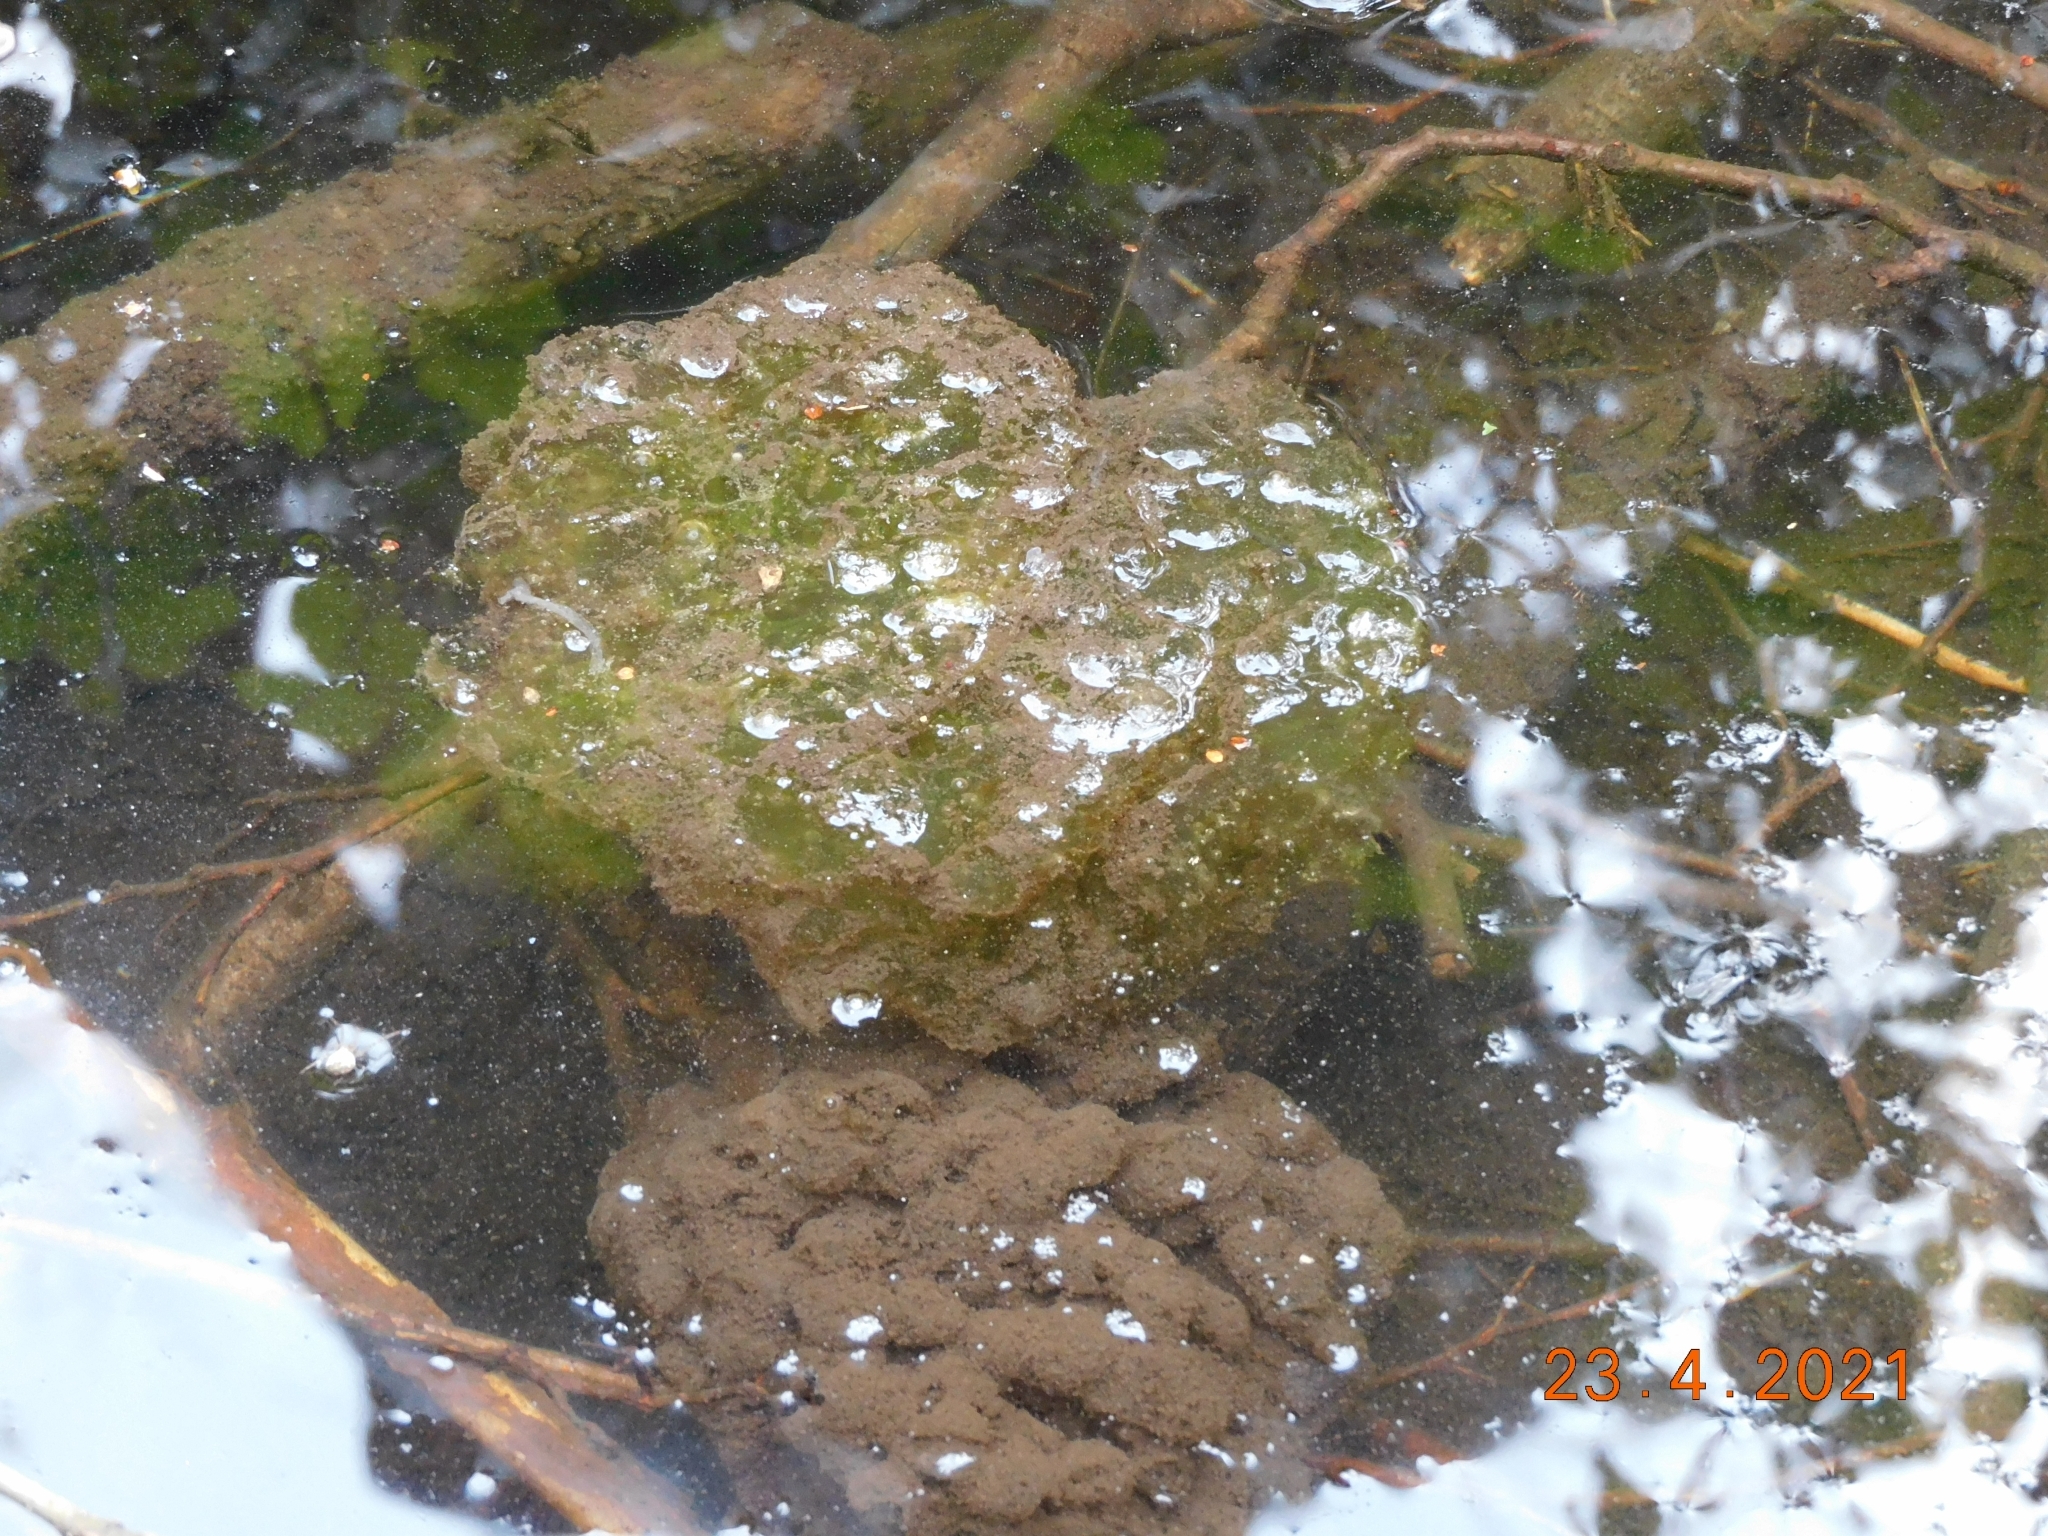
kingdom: Animalia
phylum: Chordata
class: Amphibia
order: Anura
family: Ranidae
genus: Rana
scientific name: Rana dalmatina
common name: Agile frog
